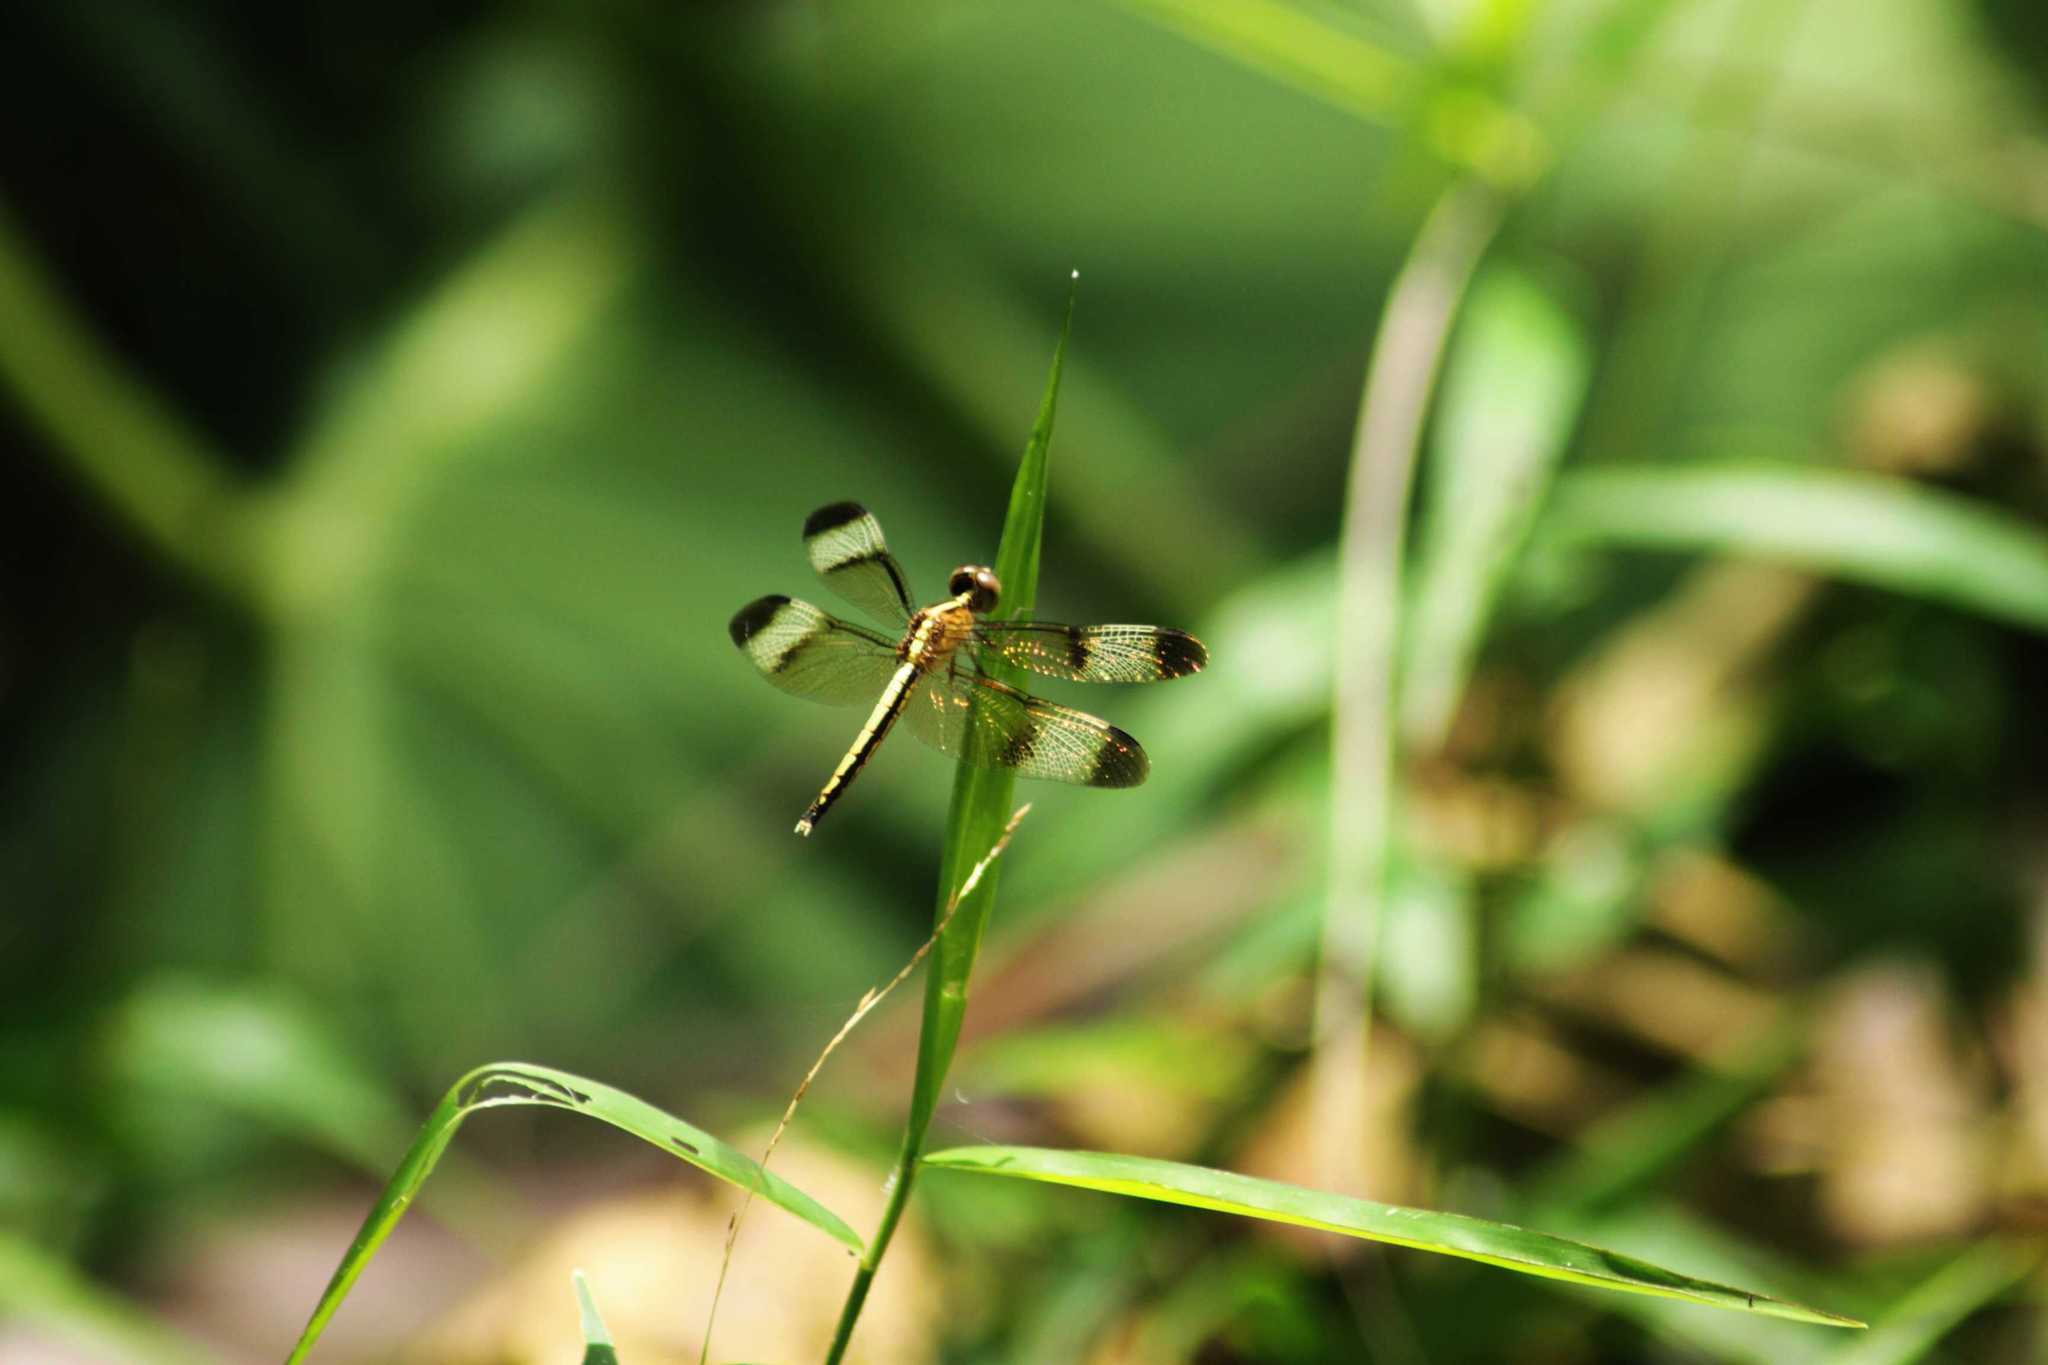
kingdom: Animalia
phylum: Arthropoda
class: Insecta
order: Odonata
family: Libellulidae
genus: Neurothemis
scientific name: Neurothemis tullia
